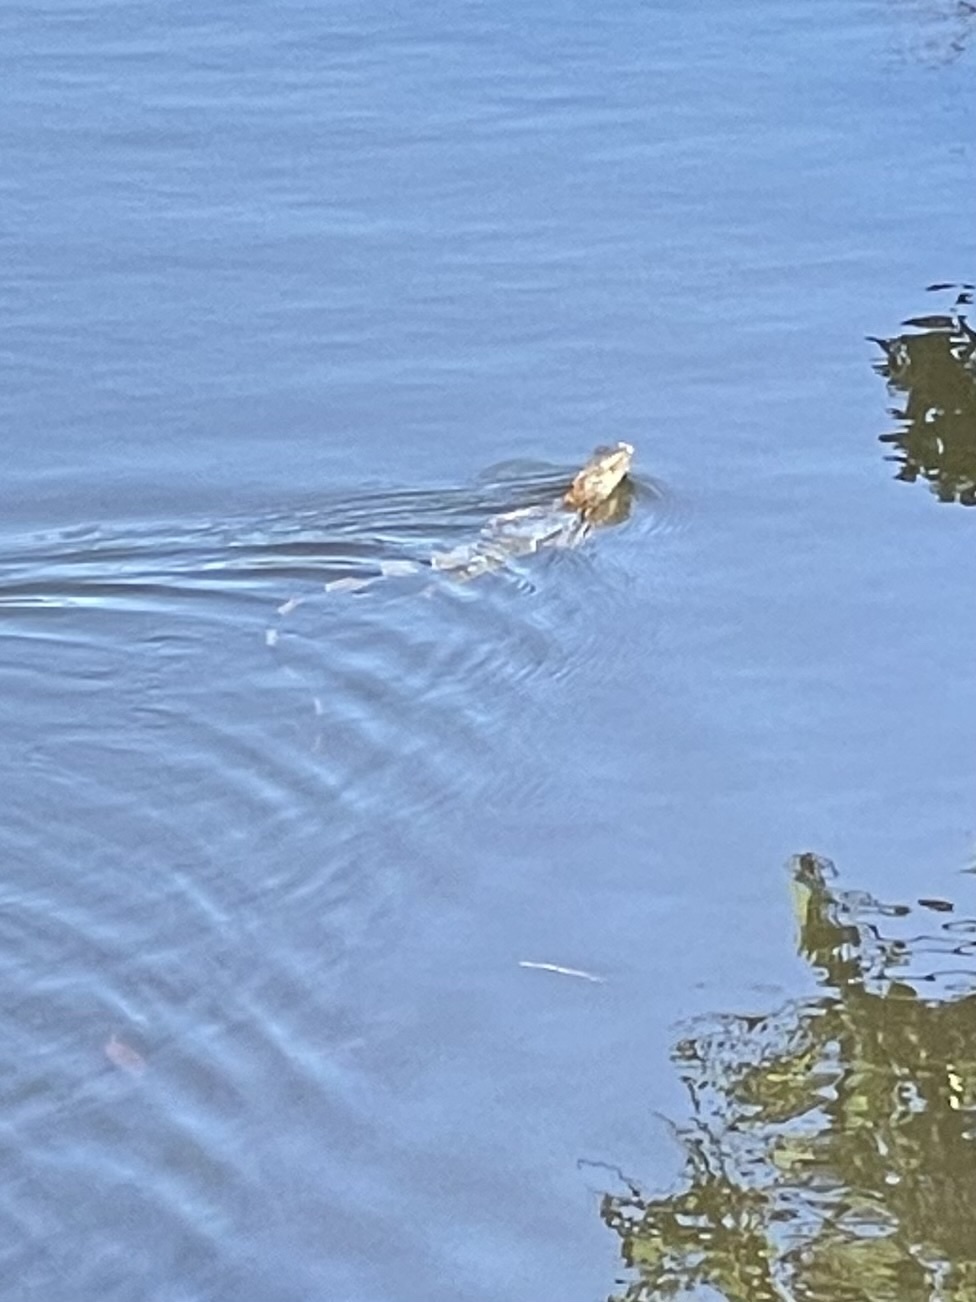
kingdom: Animalia
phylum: Chordata
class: Squamata
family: Iguanidae
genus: Iguana
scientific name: Iguana iguana
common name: Green iguana
